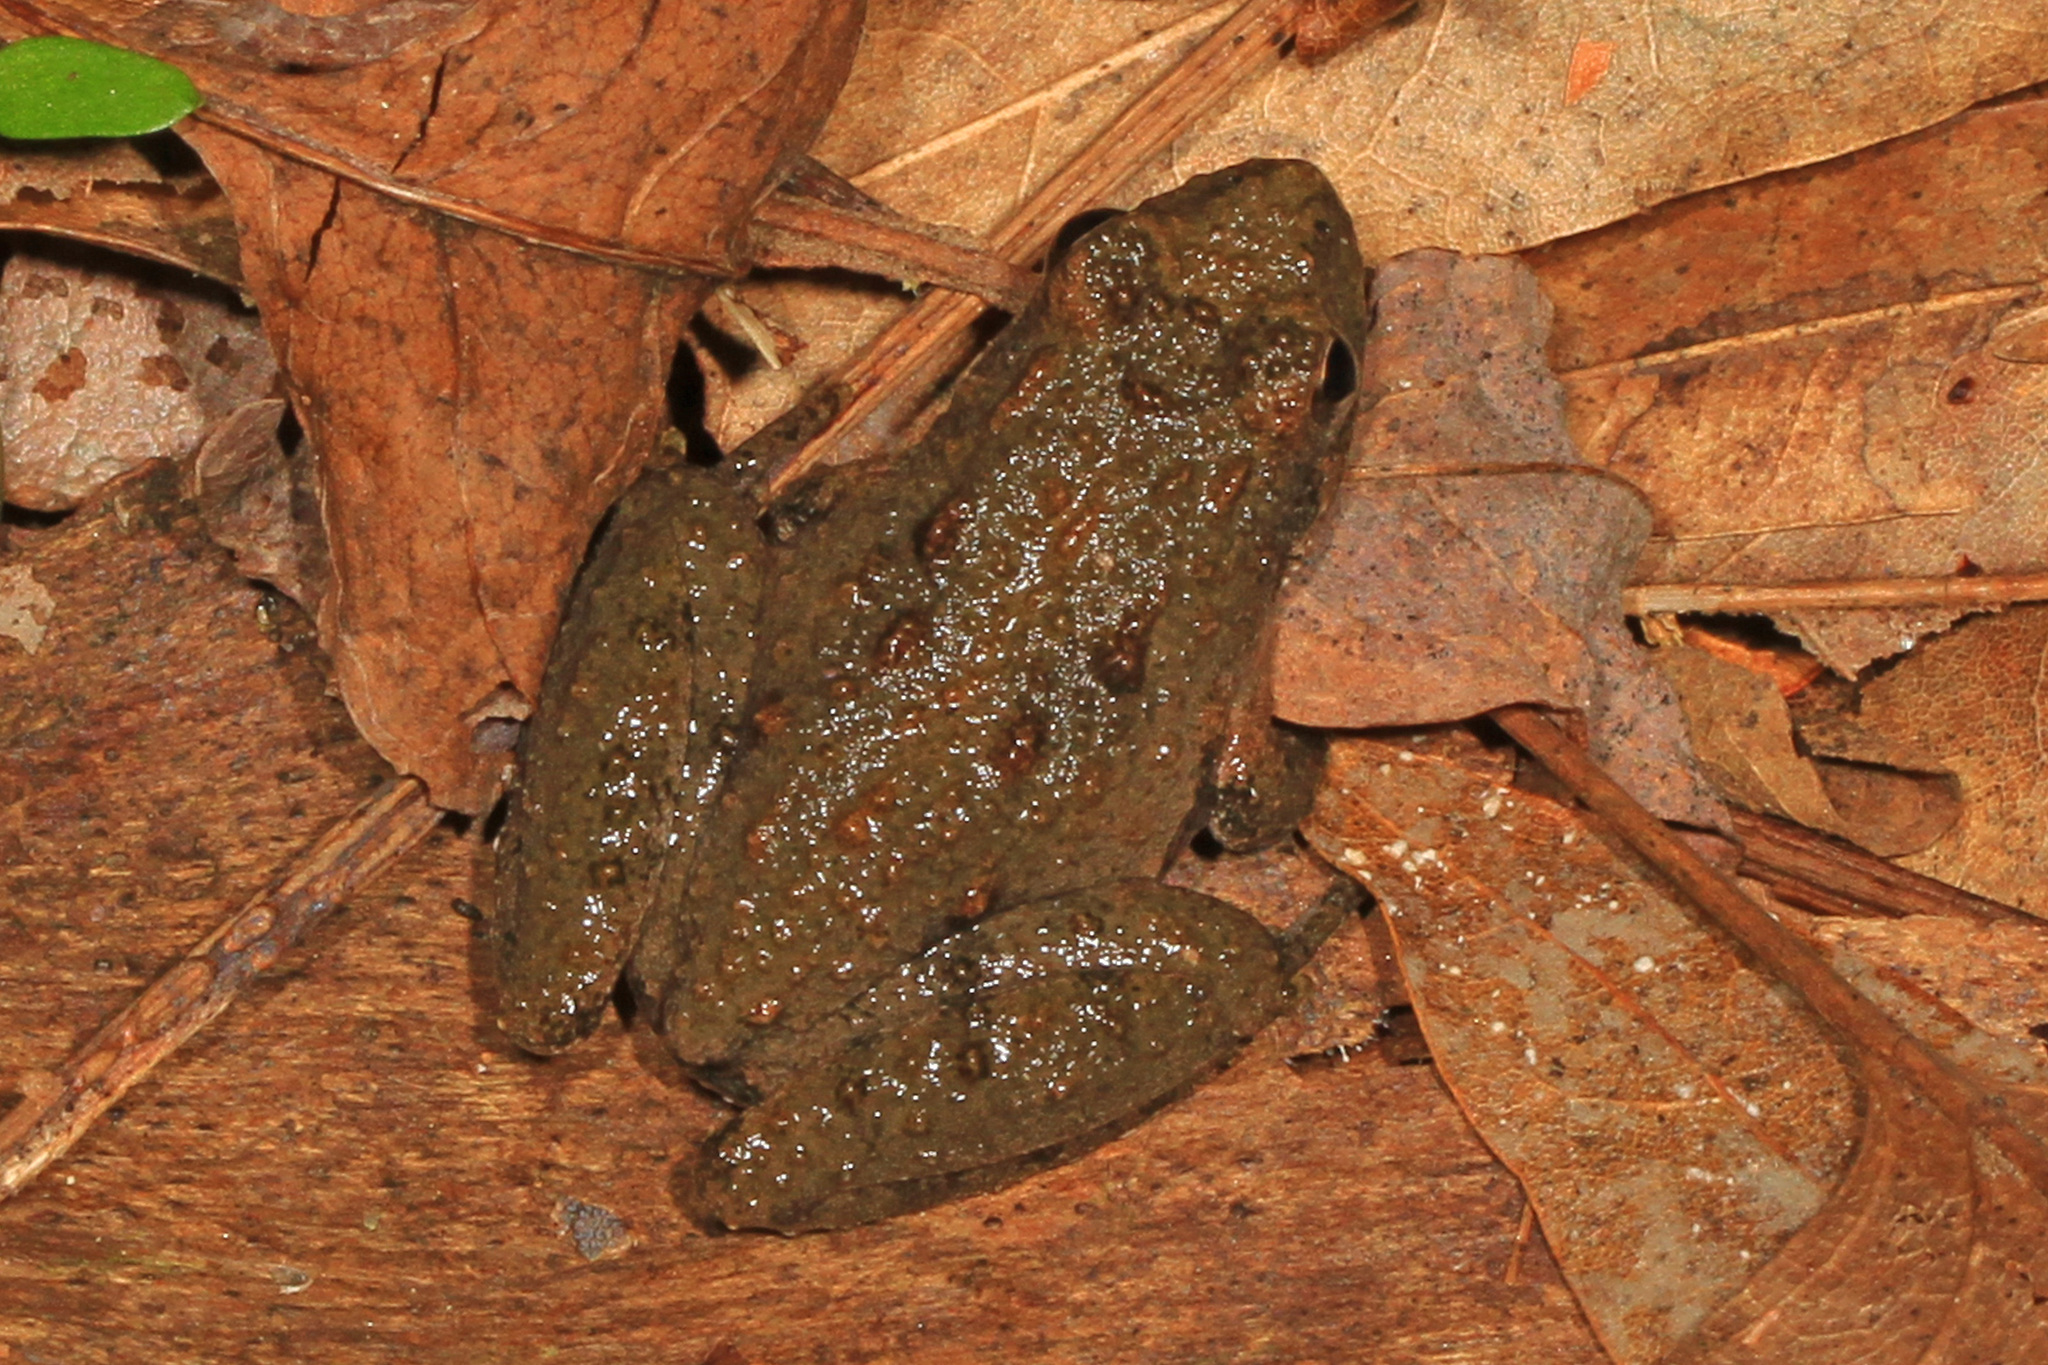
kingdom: Animalia
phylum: Chordata
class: Amphibia
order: Anura
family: Hylidae
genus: Acris
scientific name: Acris crepitans
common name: Northern cricket frog
